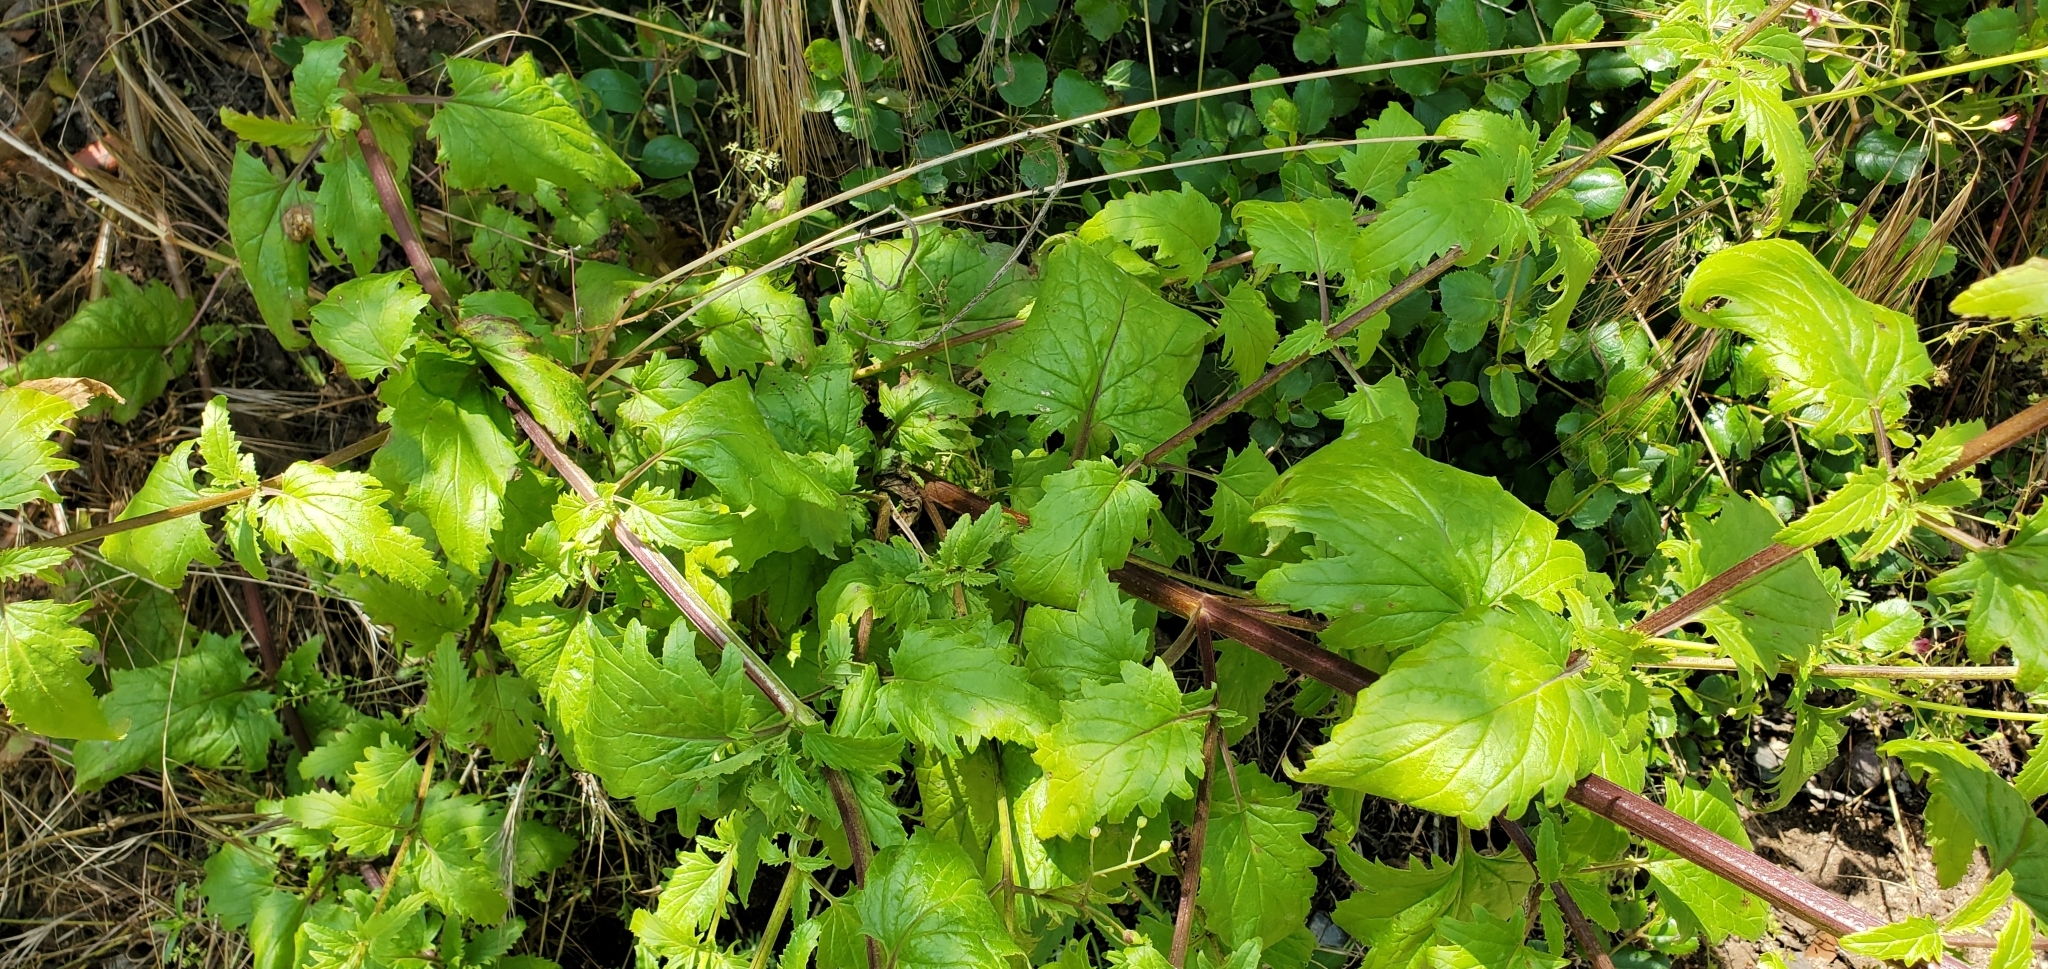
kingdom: Plantae
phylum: Tracheophyta
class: Magnoliopsida
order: Lamiales
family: Scrophulariaceae
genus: Scrophularia
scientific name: Scrophularia californica
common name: California figwort
